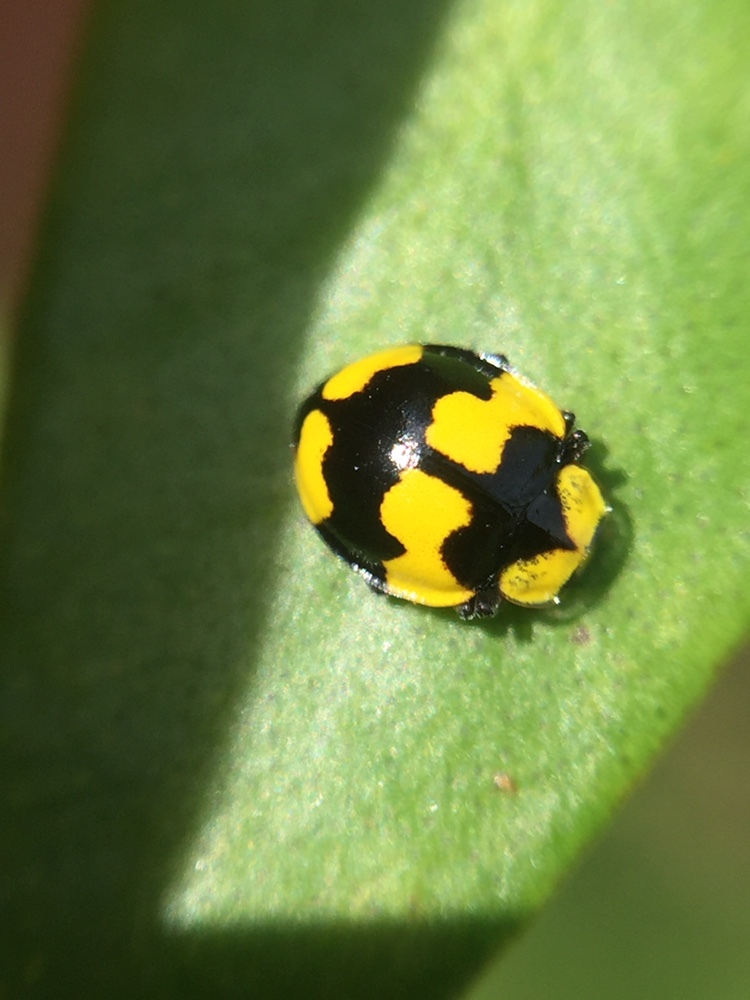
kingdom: Animalia
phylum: Arthropoda
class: Insecta
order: Coleoptera
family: Coccinellidae
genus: Illeis
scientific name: Illeis galbula
